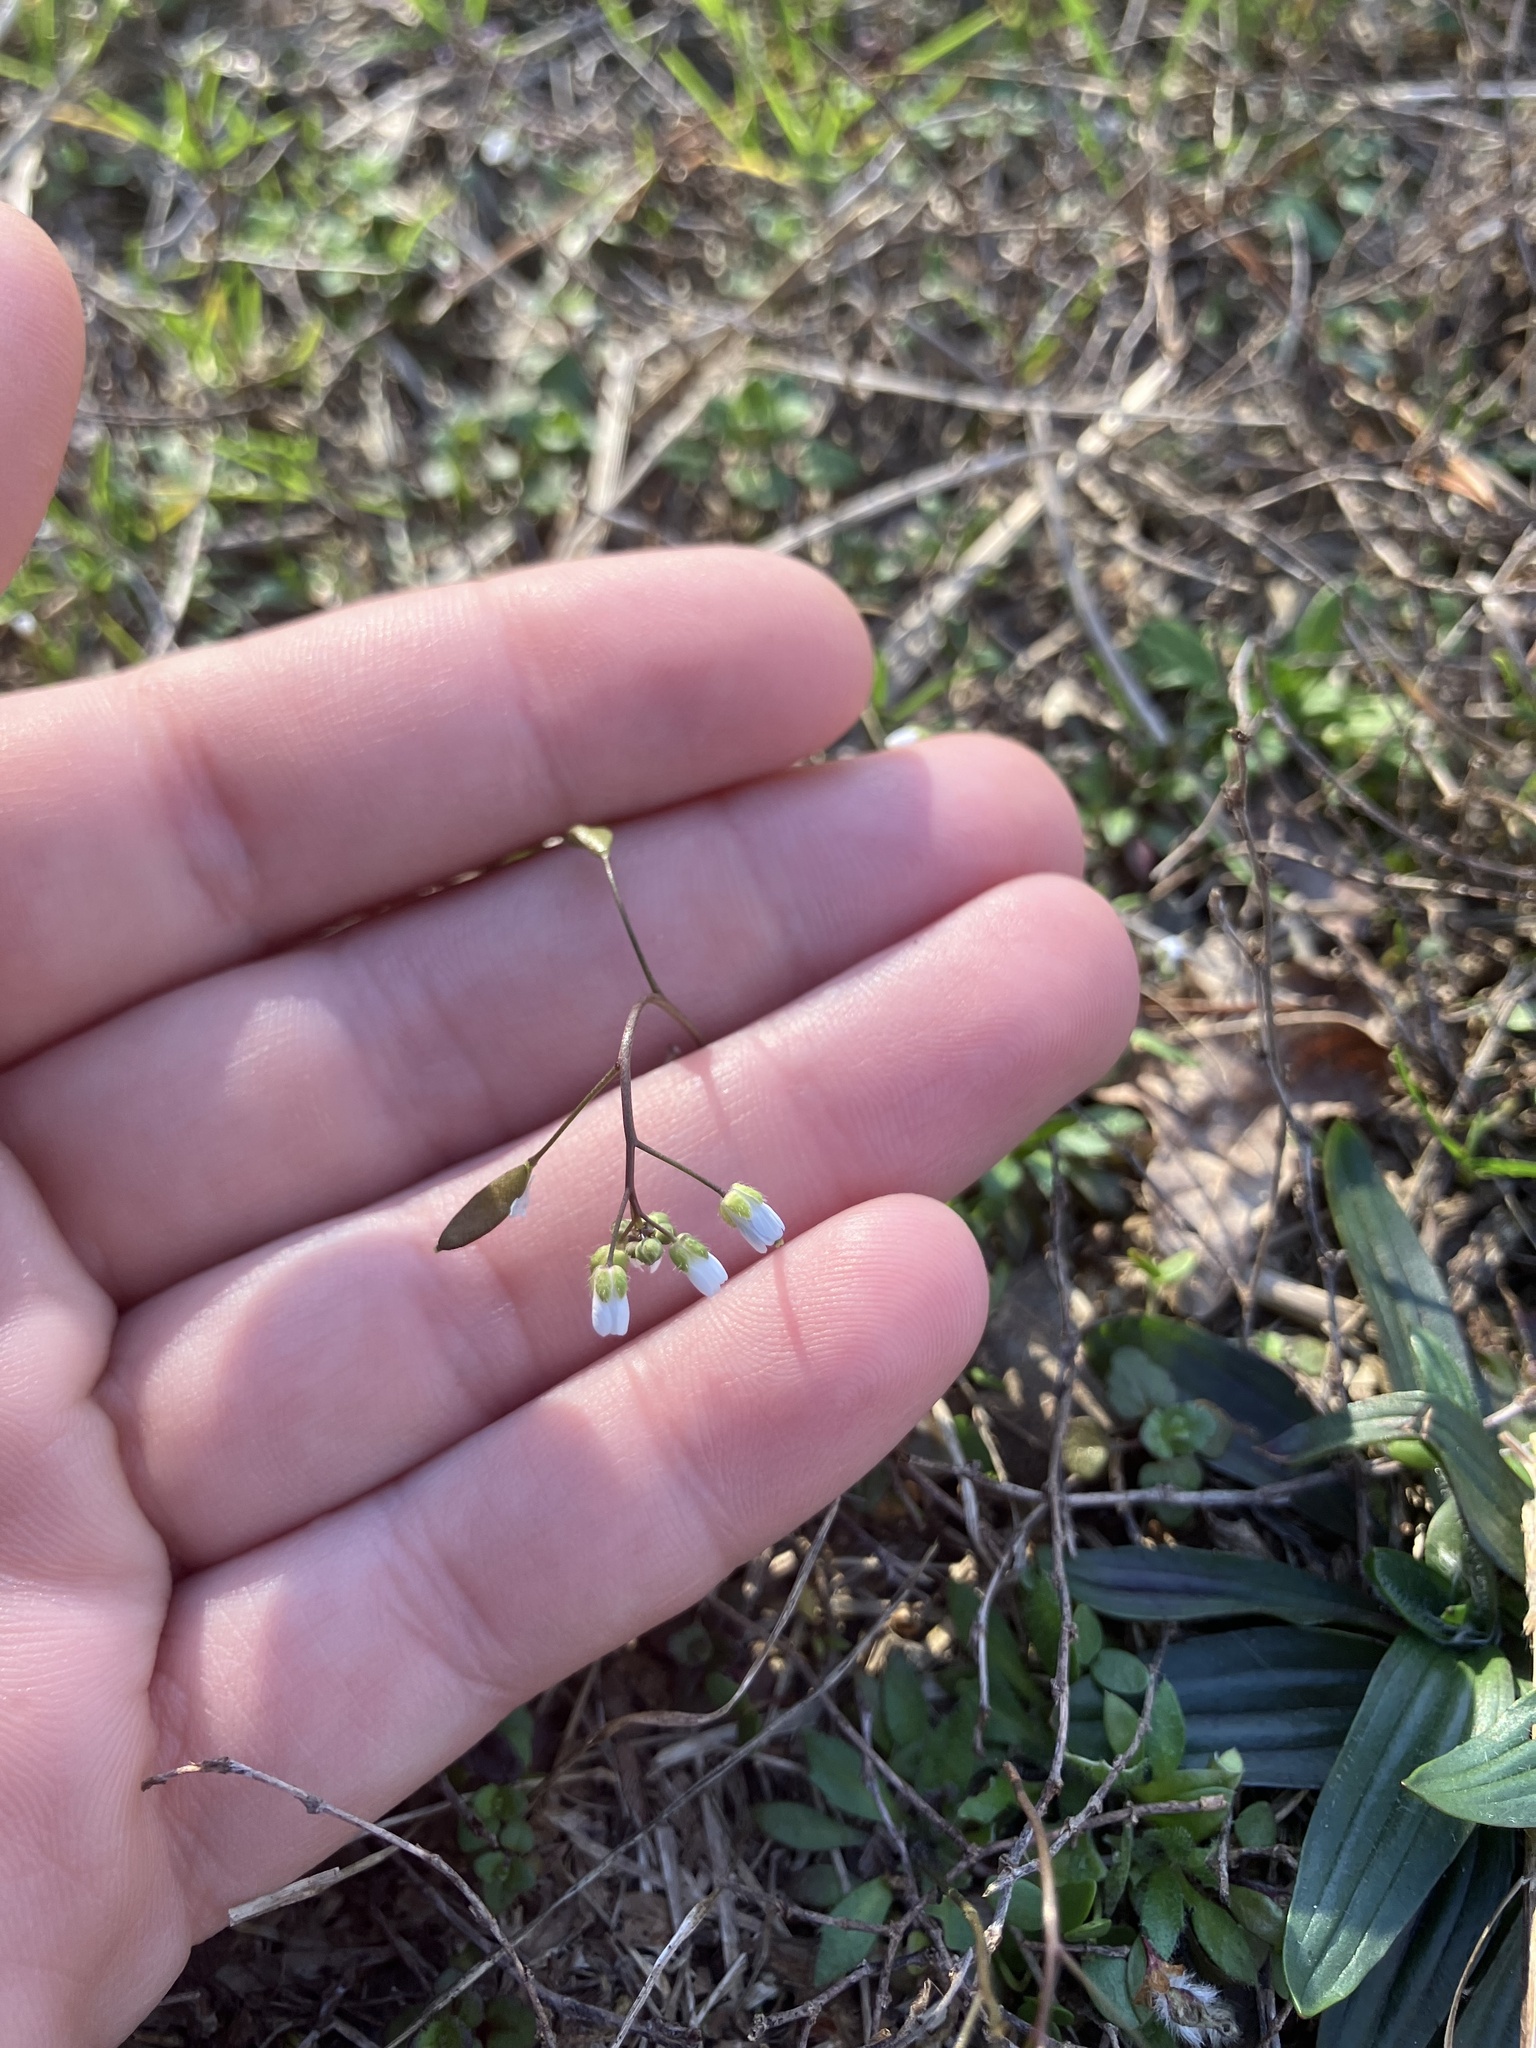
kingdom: Plantae
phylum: Tracheophyta
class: Magnoliopsida
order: Brassicales
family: Brassicaceae
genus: Draba
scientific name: Draba verna
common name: Spring draba
